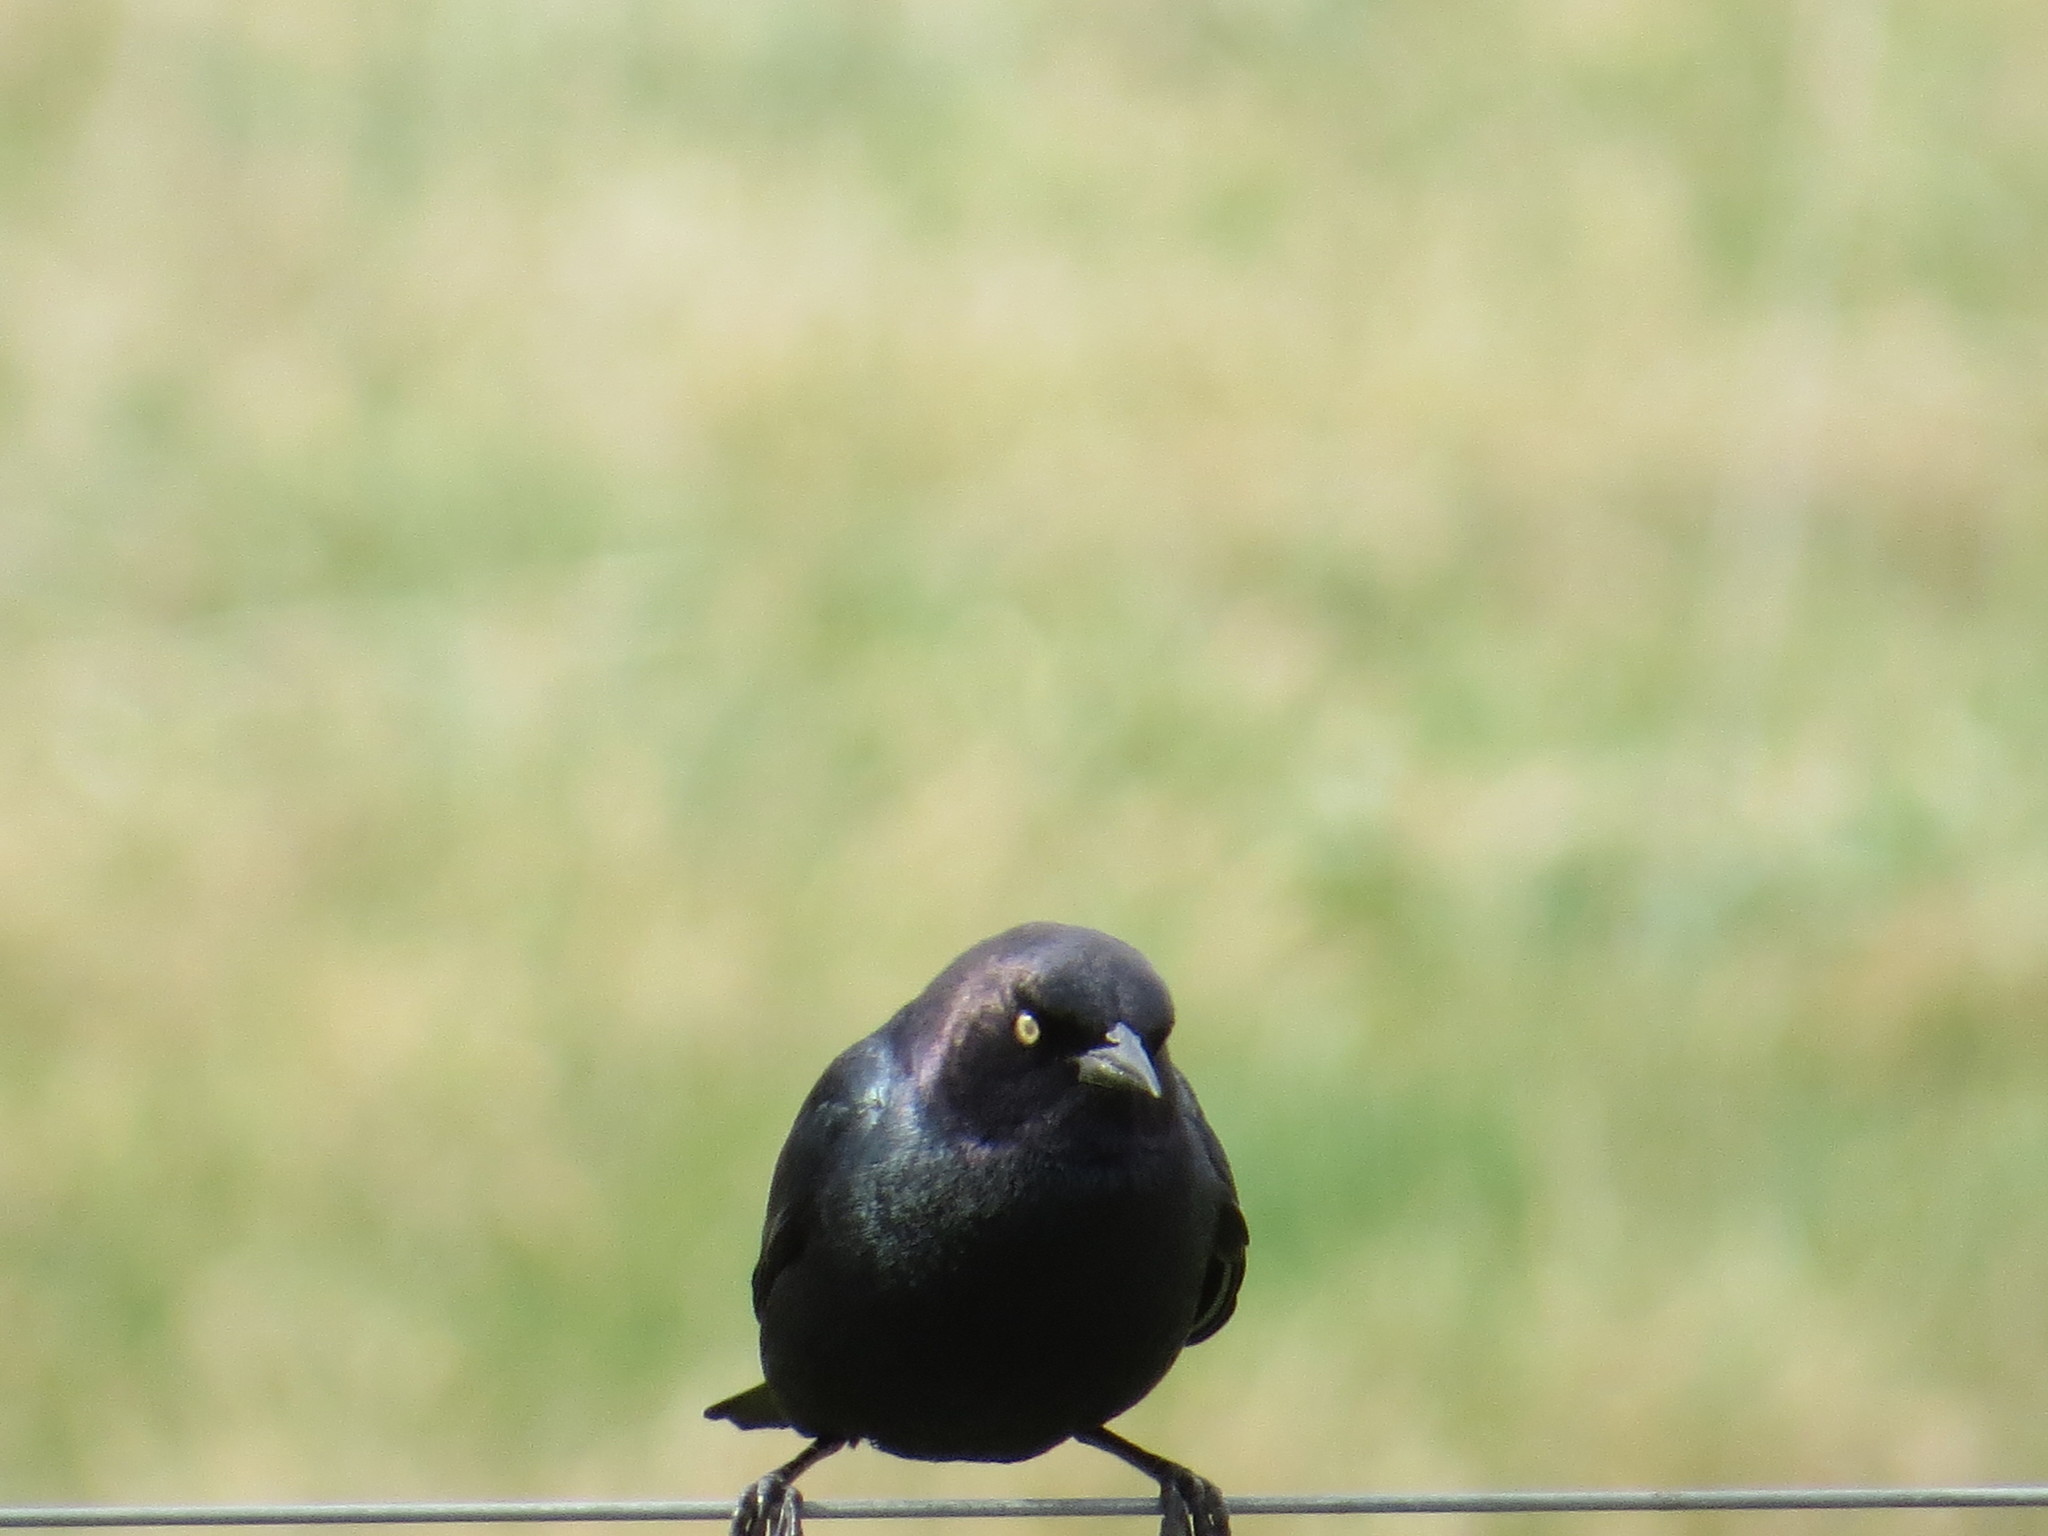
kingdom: Animalia
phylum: Chordata
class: Aves
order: Passeriformes
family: Icteridae
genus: Euphagus
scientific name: Euphagus cyanocephalus
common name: Brewer's blackbird
